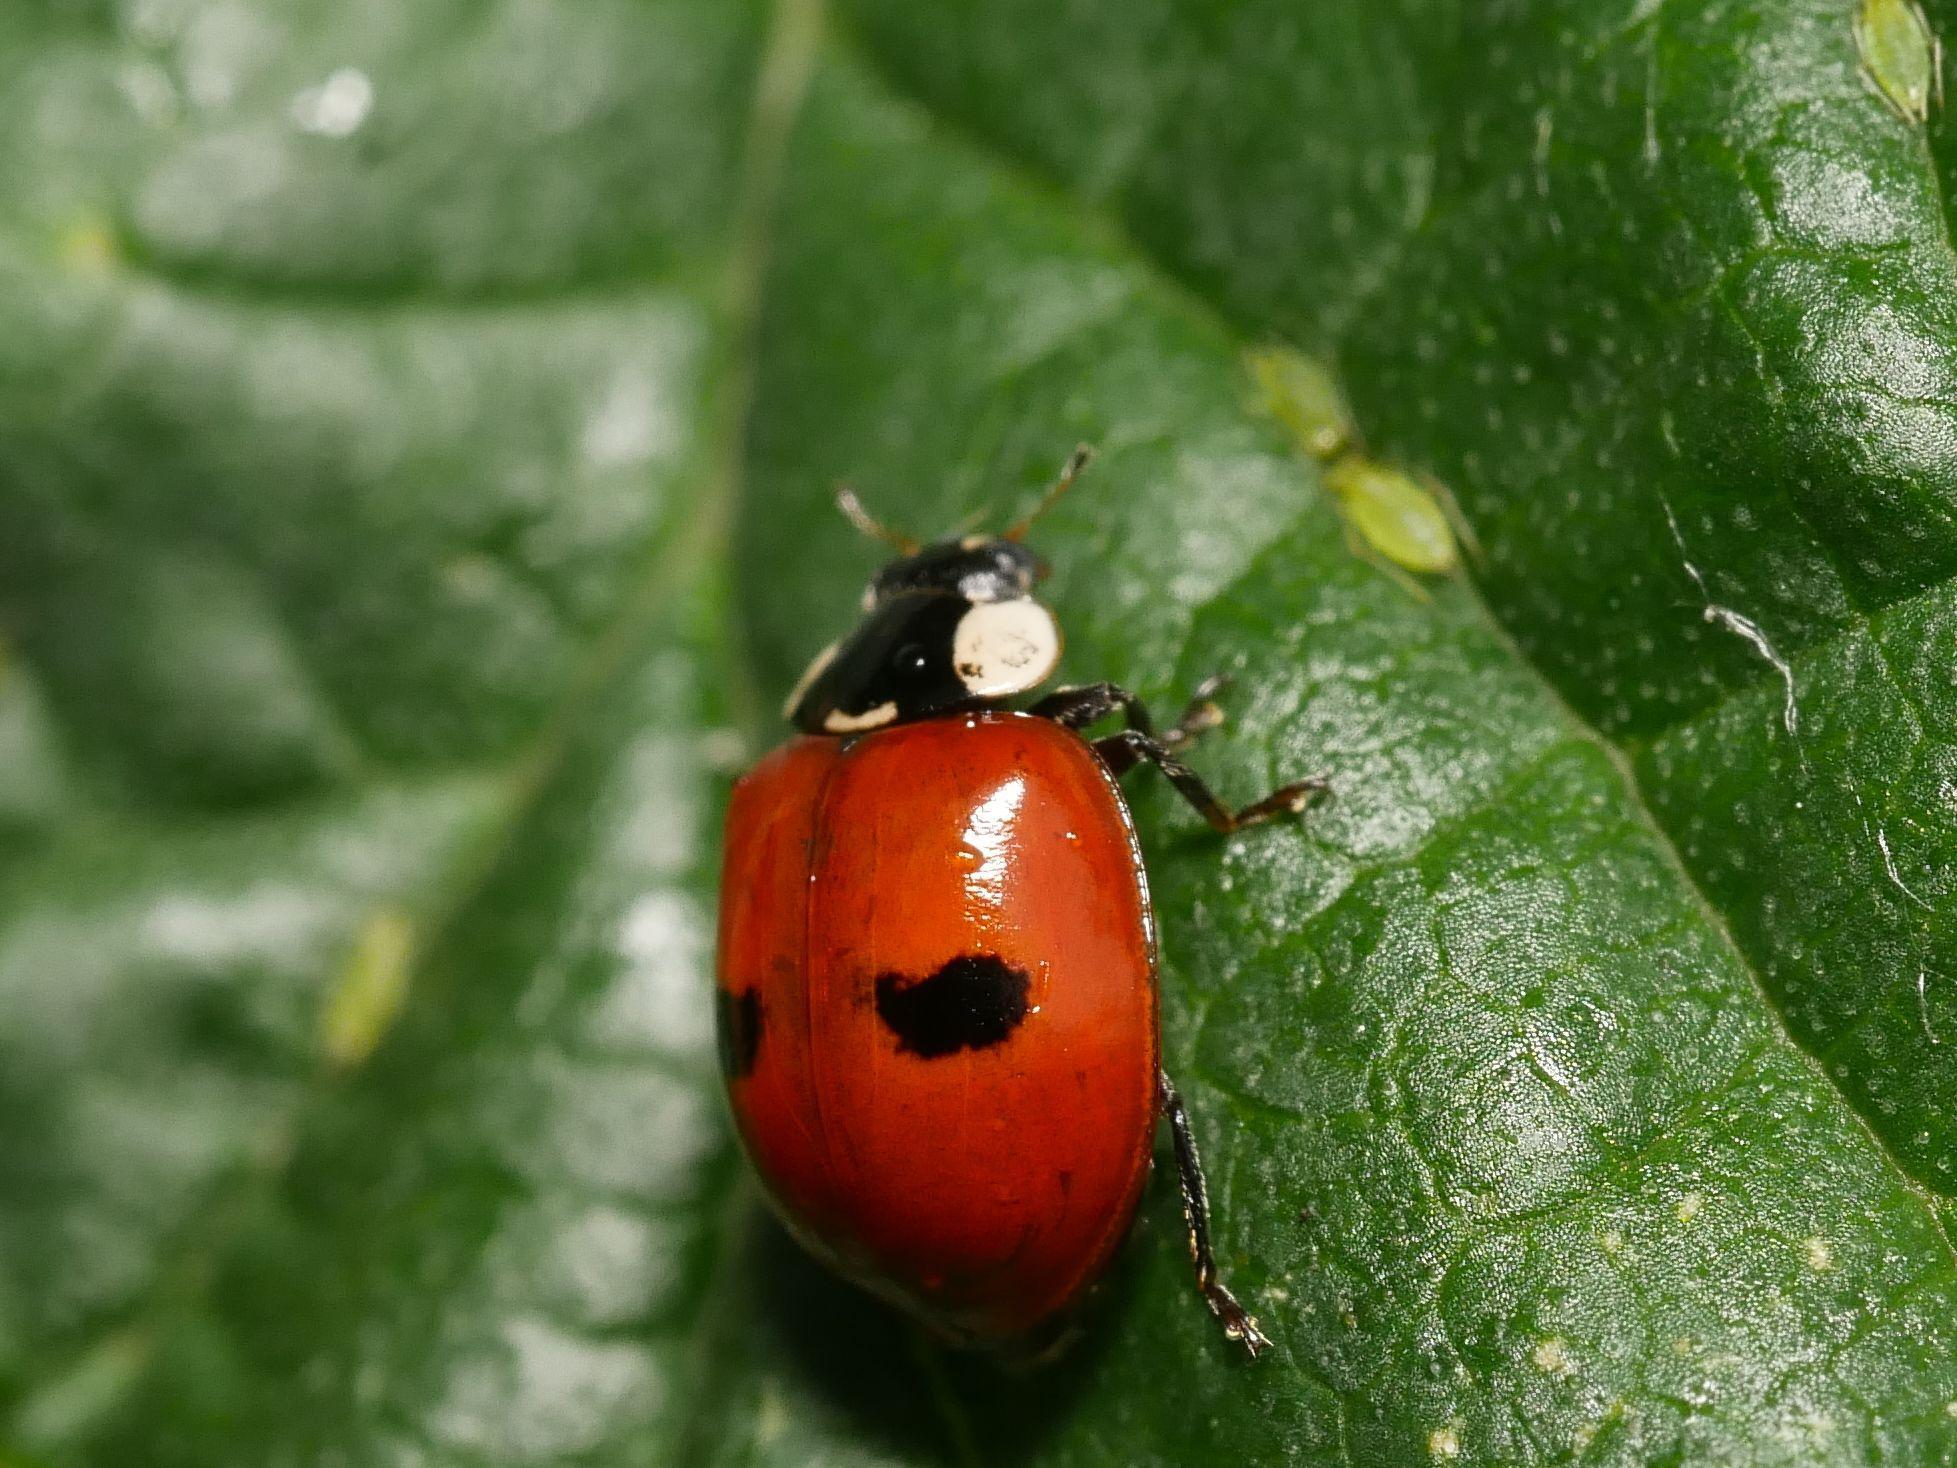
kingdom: Animalia
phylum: Arthropoda
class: Insecta
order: Coleoptera
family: Coccinellidae
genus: Adalia
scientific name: Adalia bipunctata
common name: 2-spot ladybird
